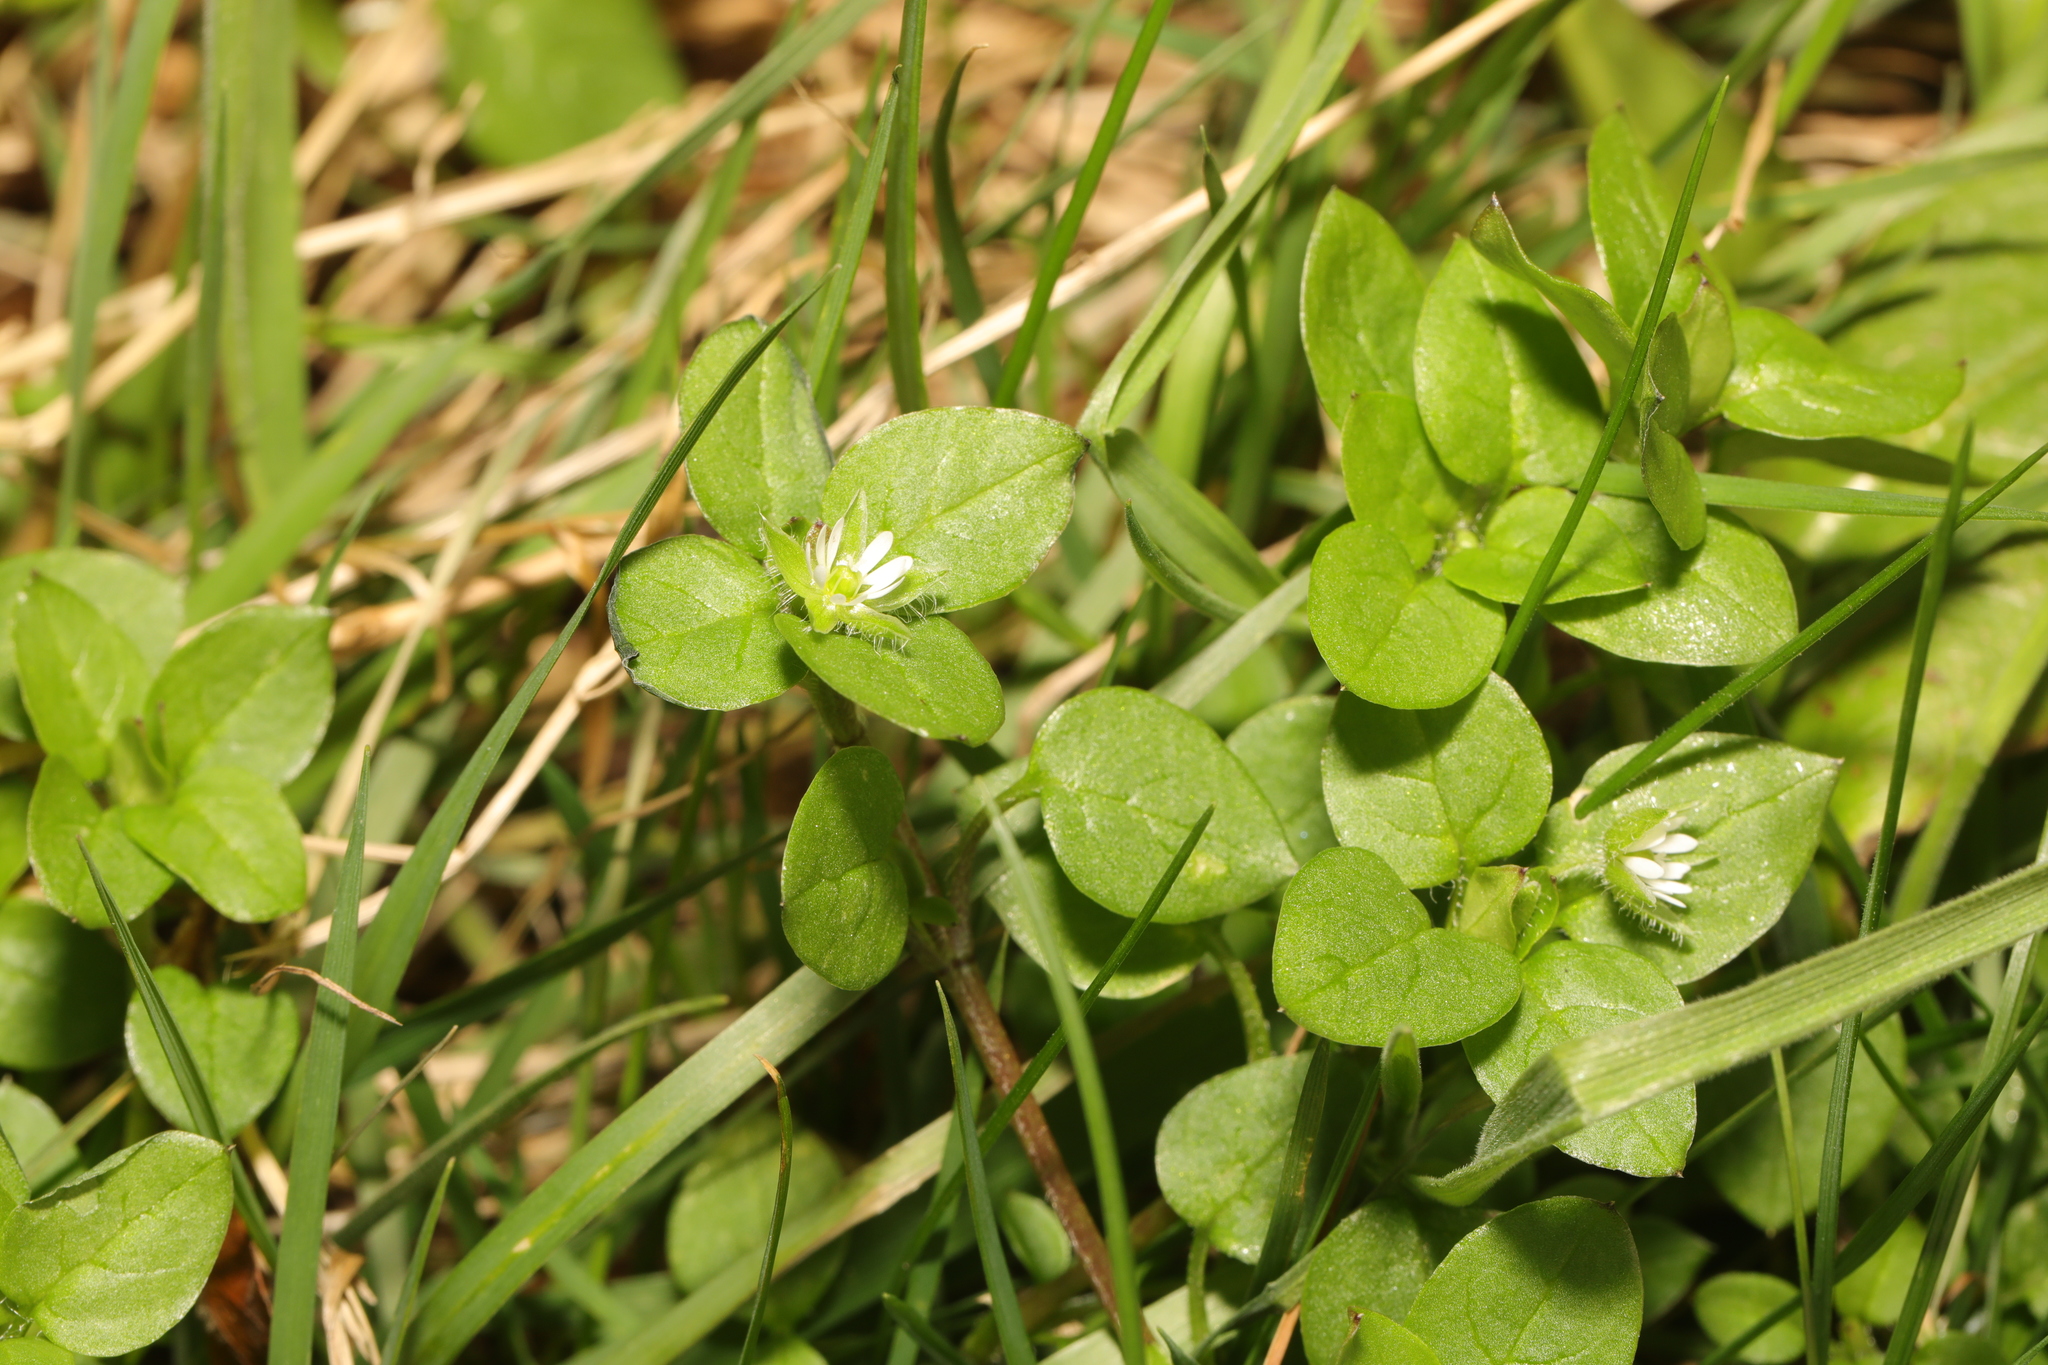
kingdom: Plantae
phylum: Tracheophyta
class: Magnoliopsida
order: Caryophyllales
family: Caryophyllaceae
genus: Stellaria
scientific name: Stellaria media
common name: Common chickweed
